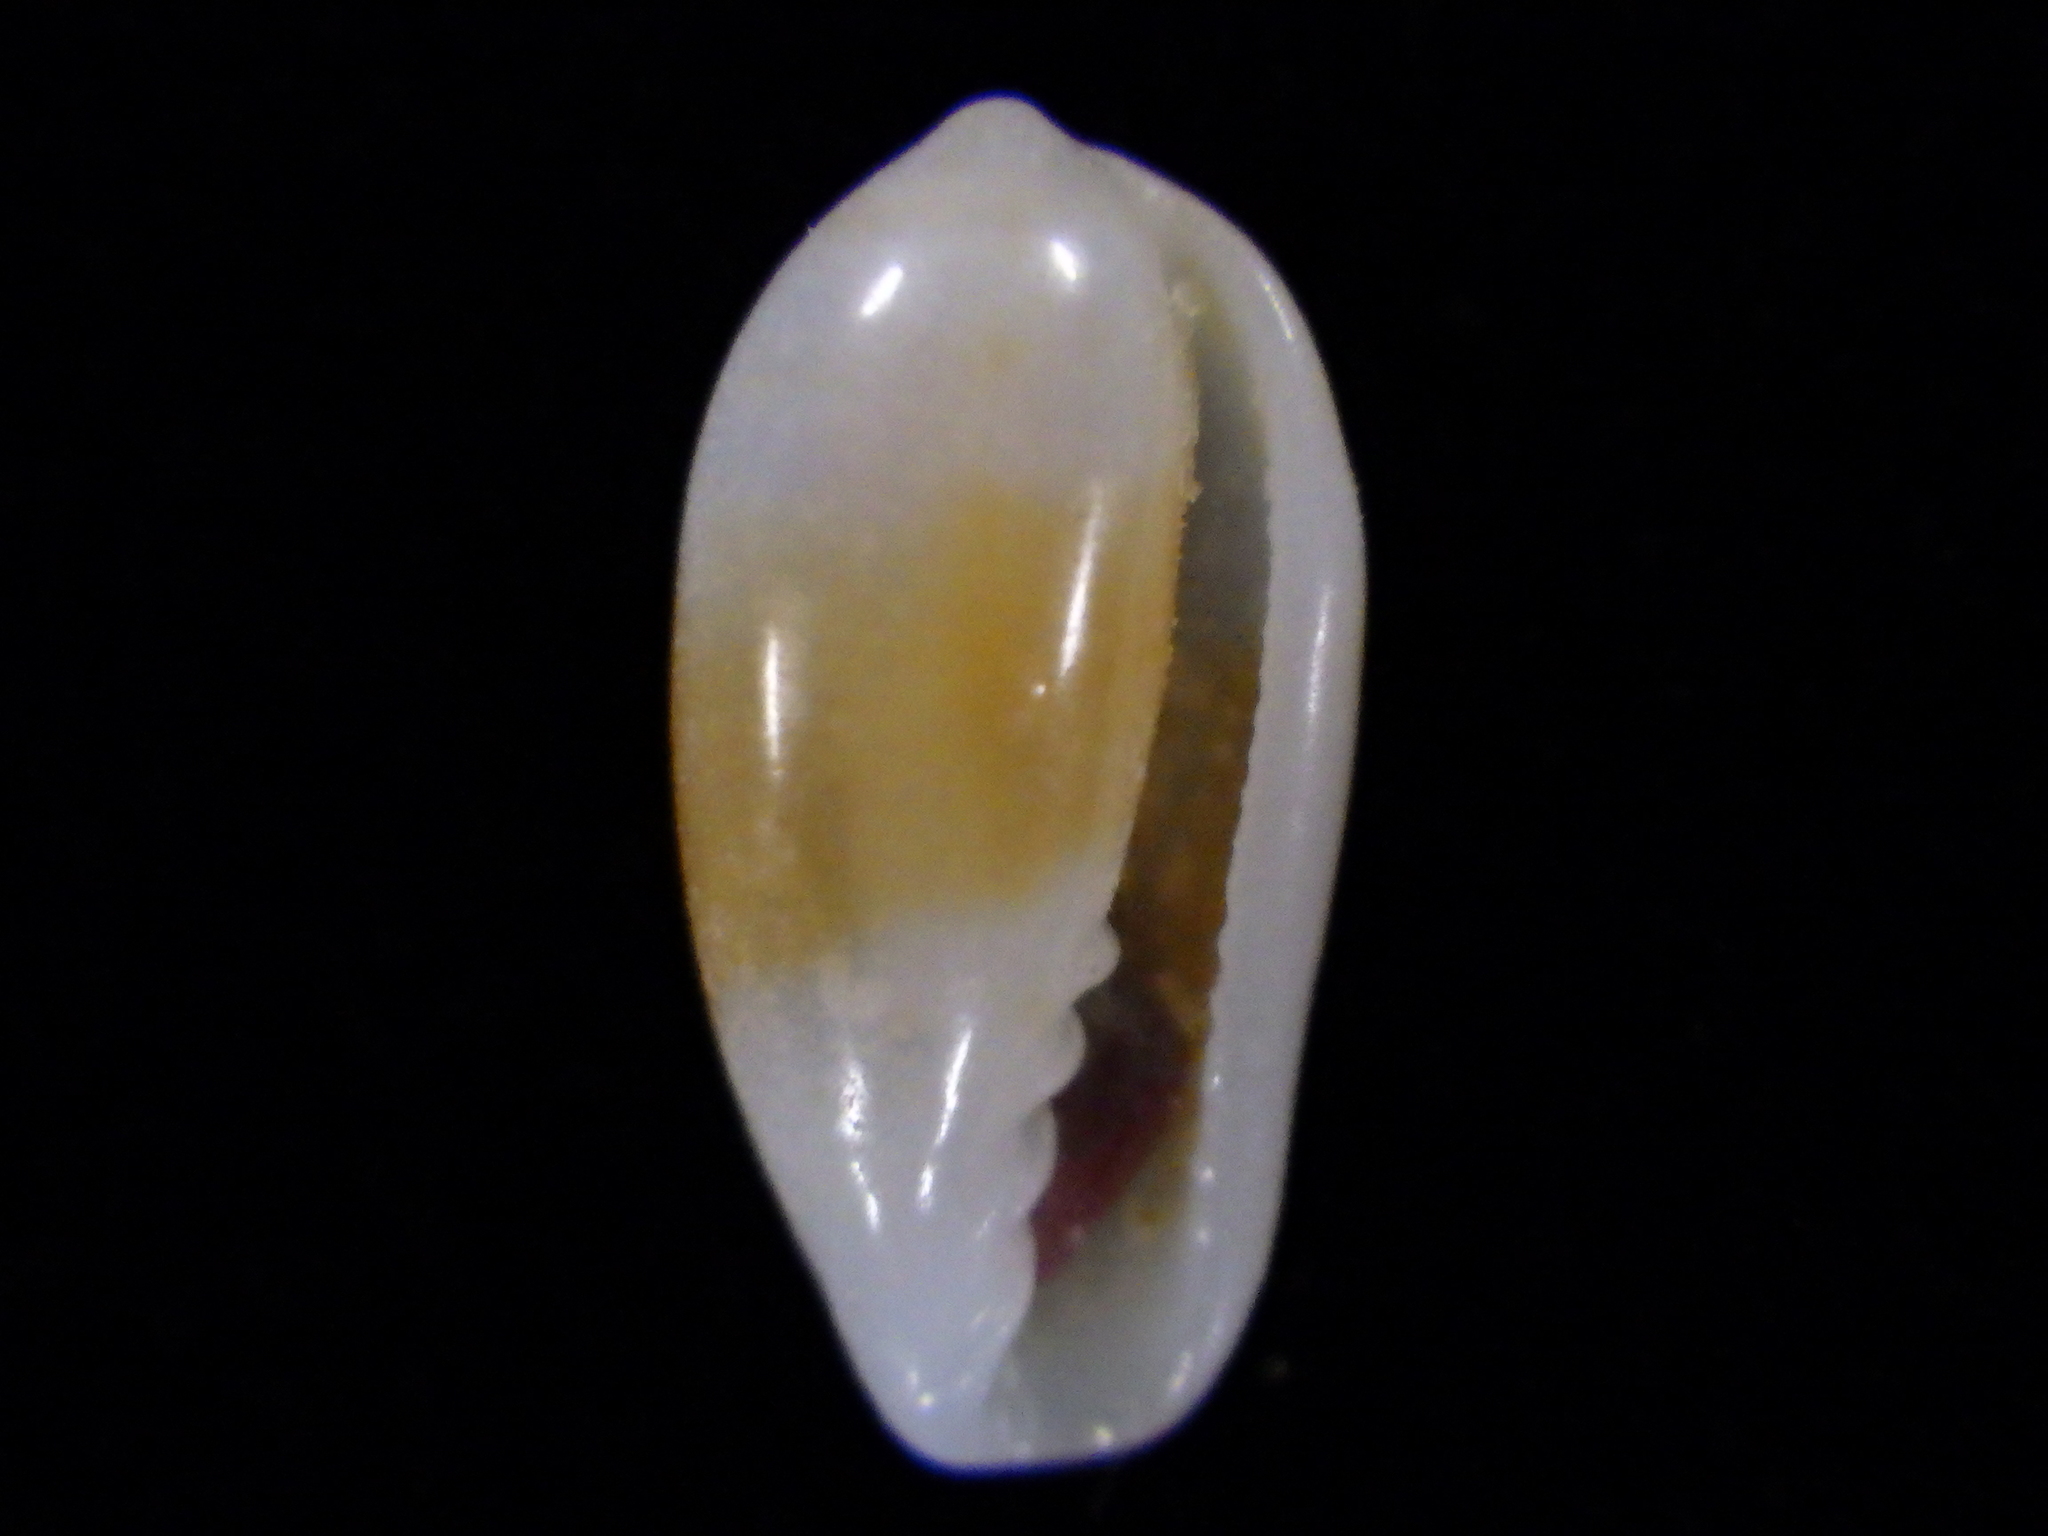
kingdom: Animalia
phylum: Mollusca
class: Gastropoda
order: Neogastropoda
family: Marginellidae
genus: Serrata
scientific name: Serrata fasciata
